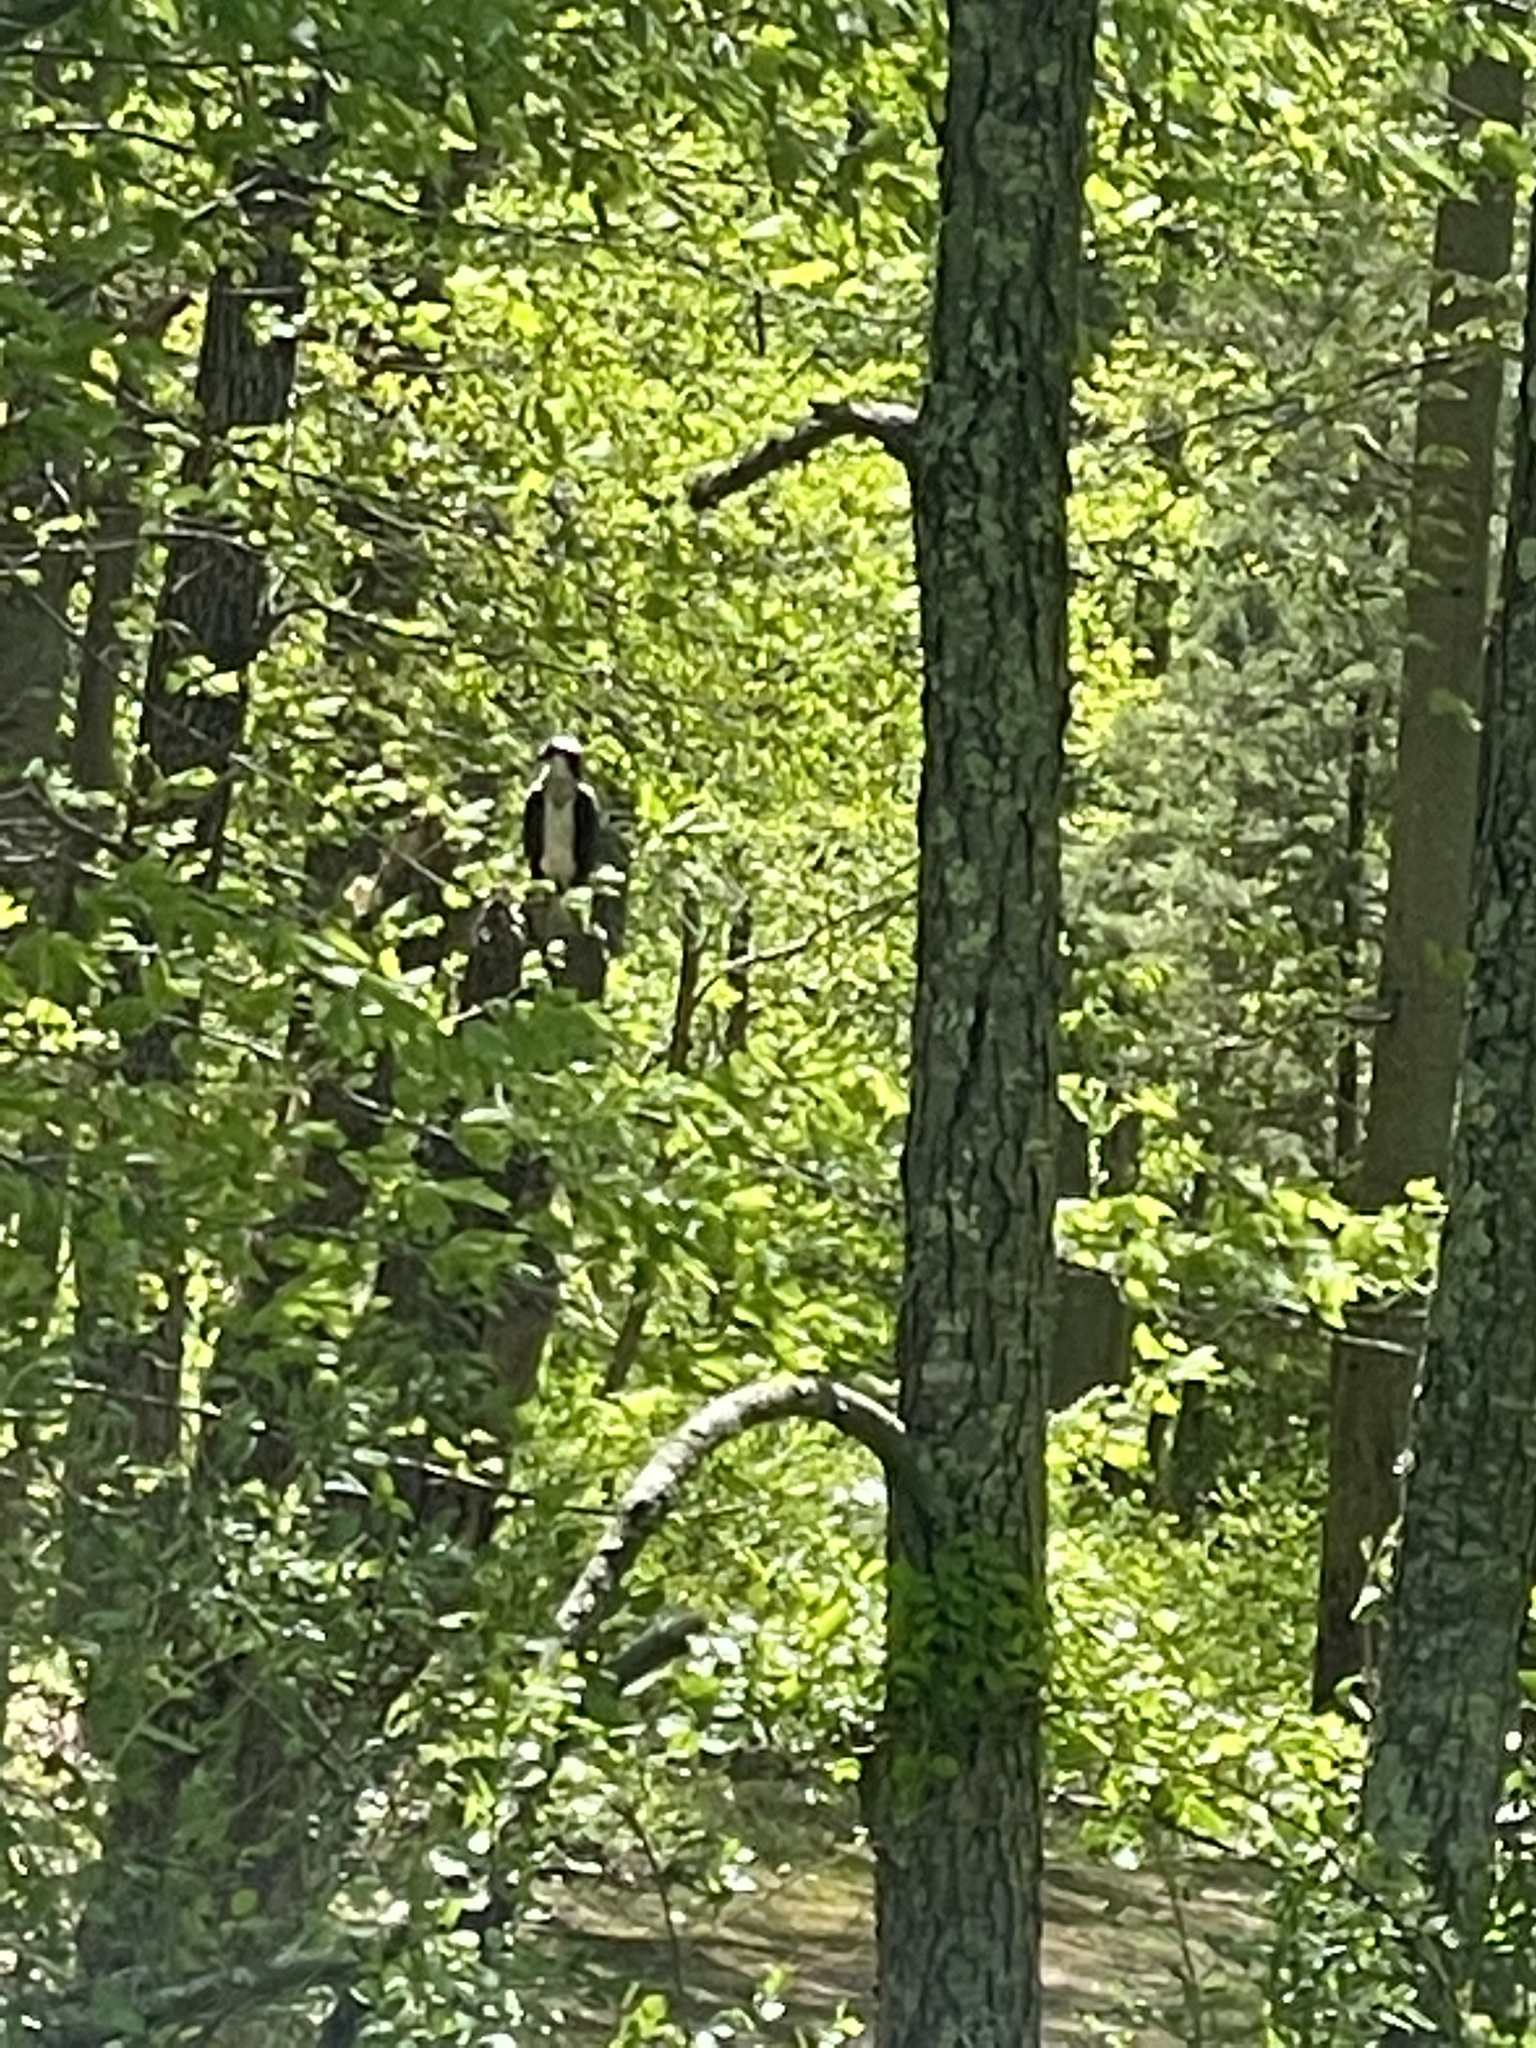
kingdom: Animalia
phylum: Chordata
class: Aves
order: Accipitriformes
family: Pandionidae
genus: Pandion
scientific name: Pandion haliaetus
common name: Osprey
